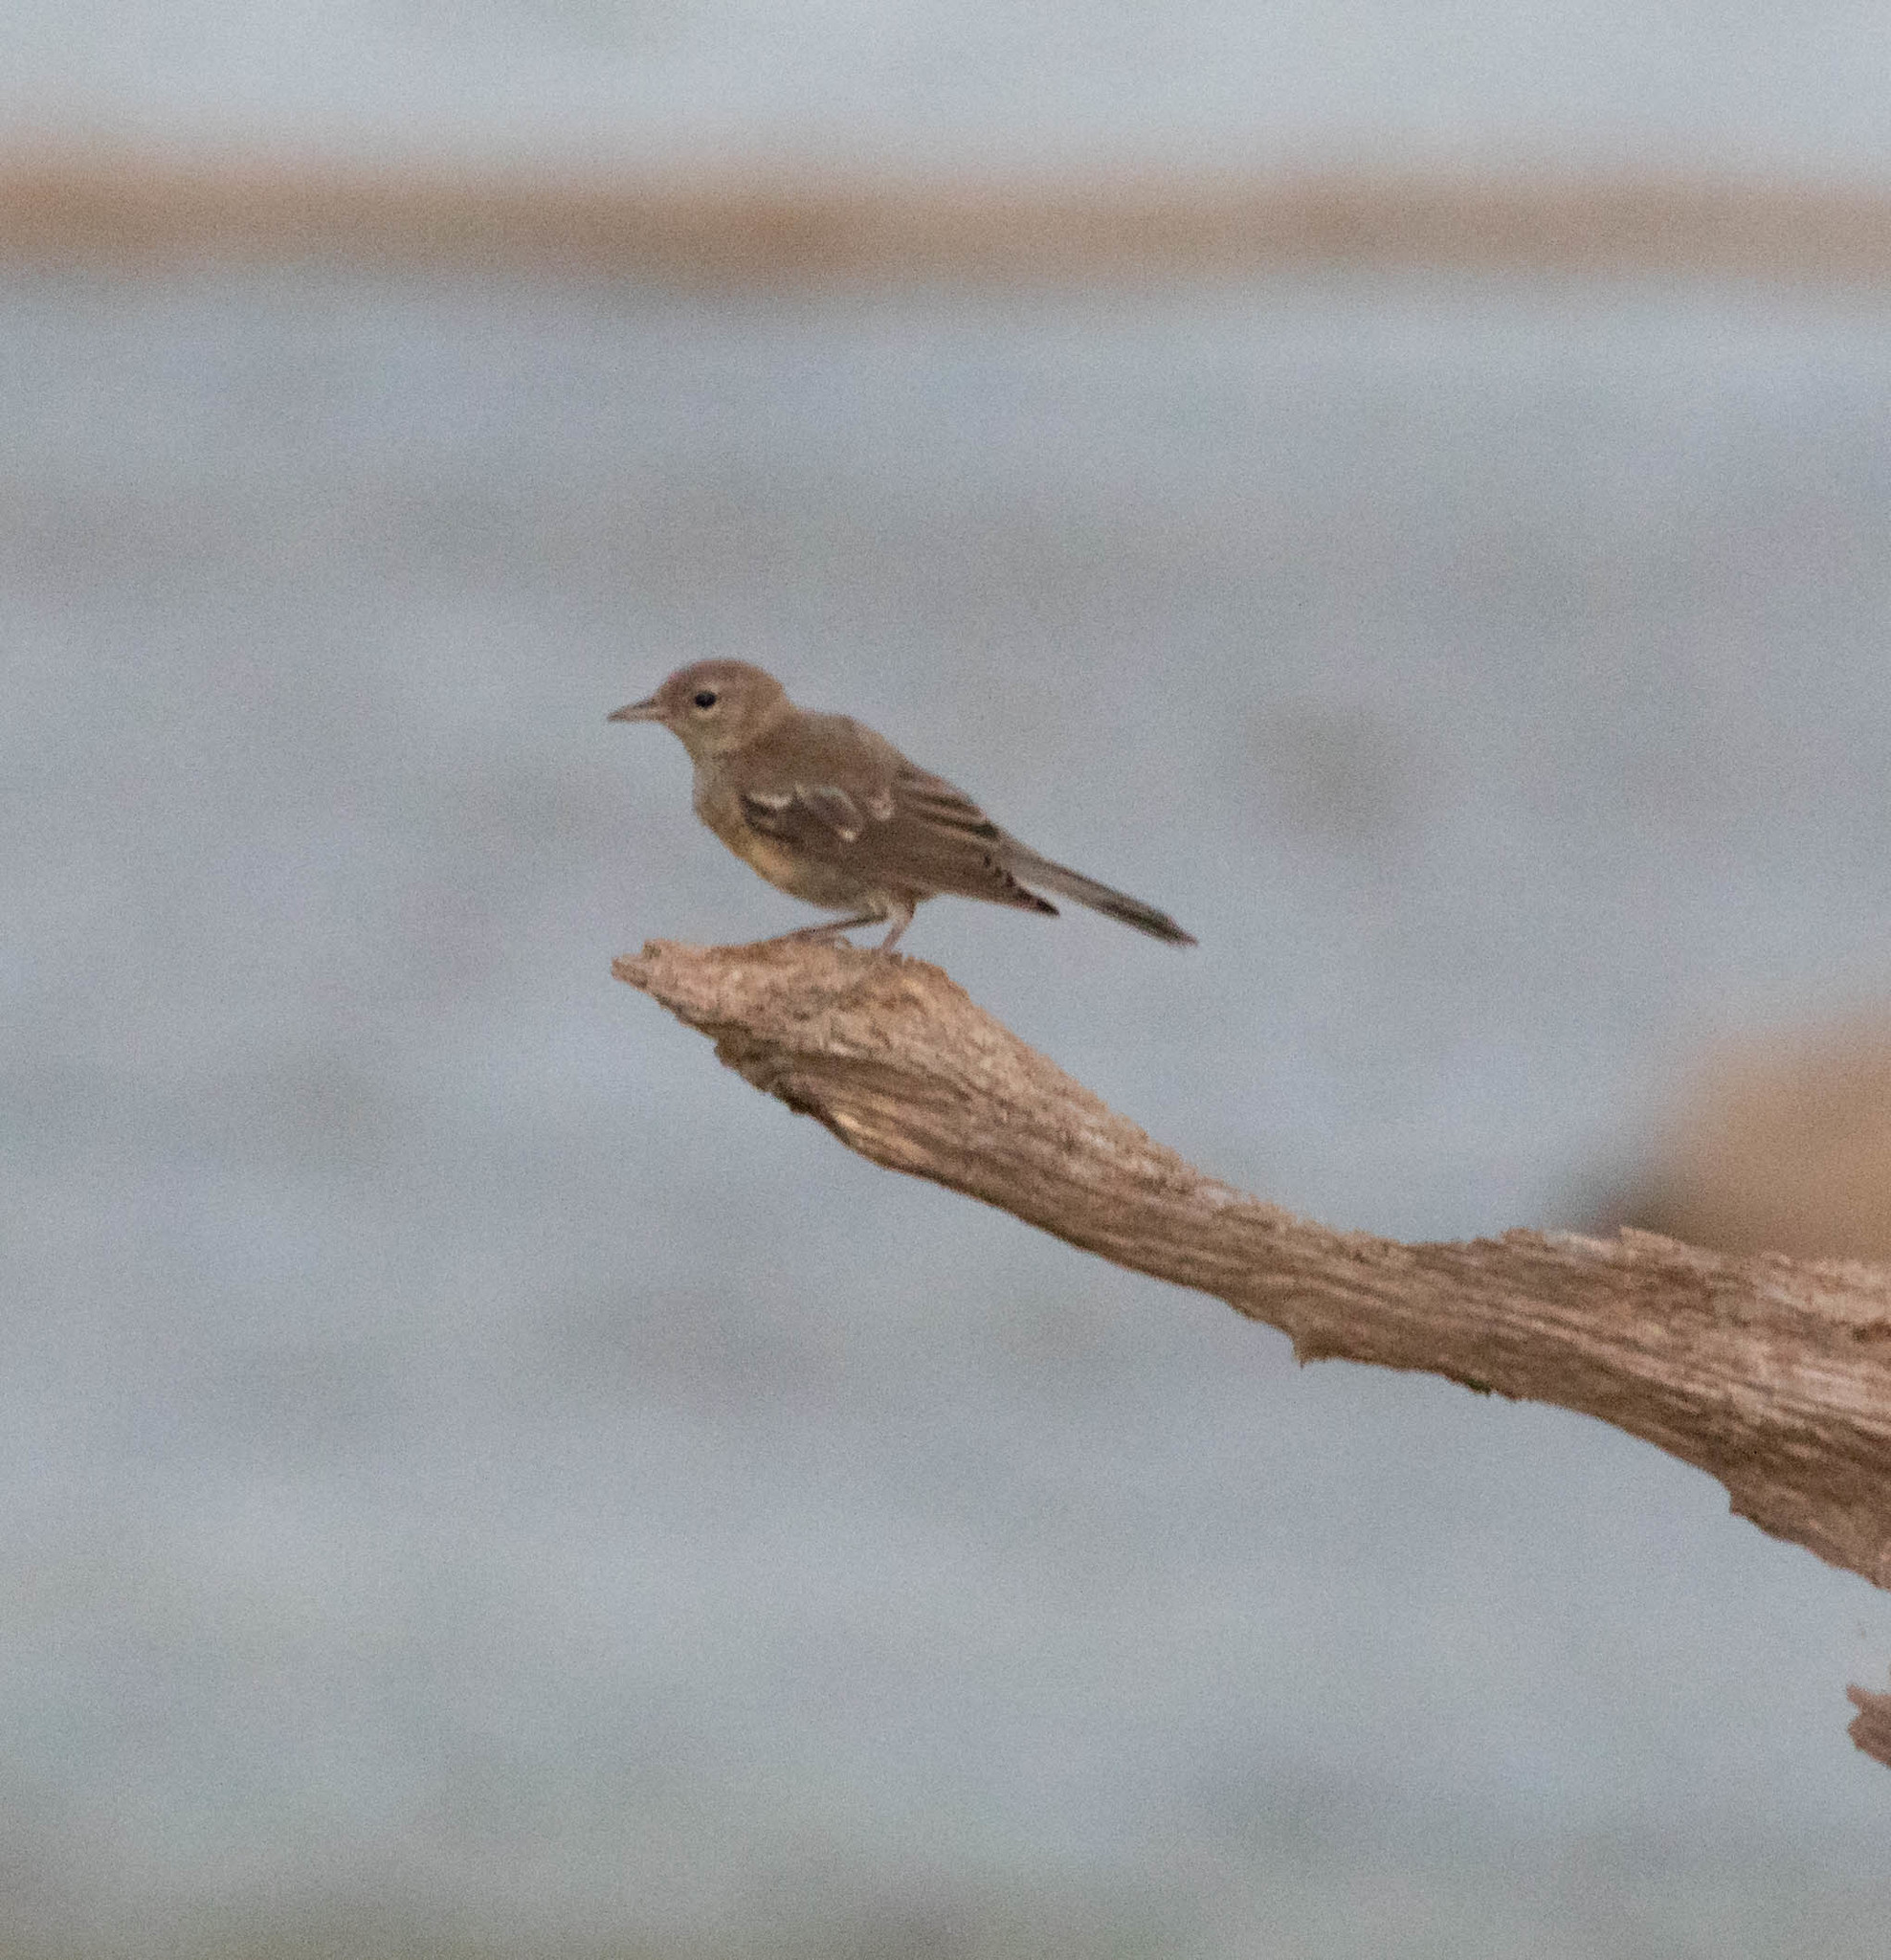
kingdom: Animalia
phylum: Chordata
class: Aves
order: Passeriformes
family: Parulidae
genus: Setophaga
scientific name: Setophaga pinus
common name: Pine warbler
